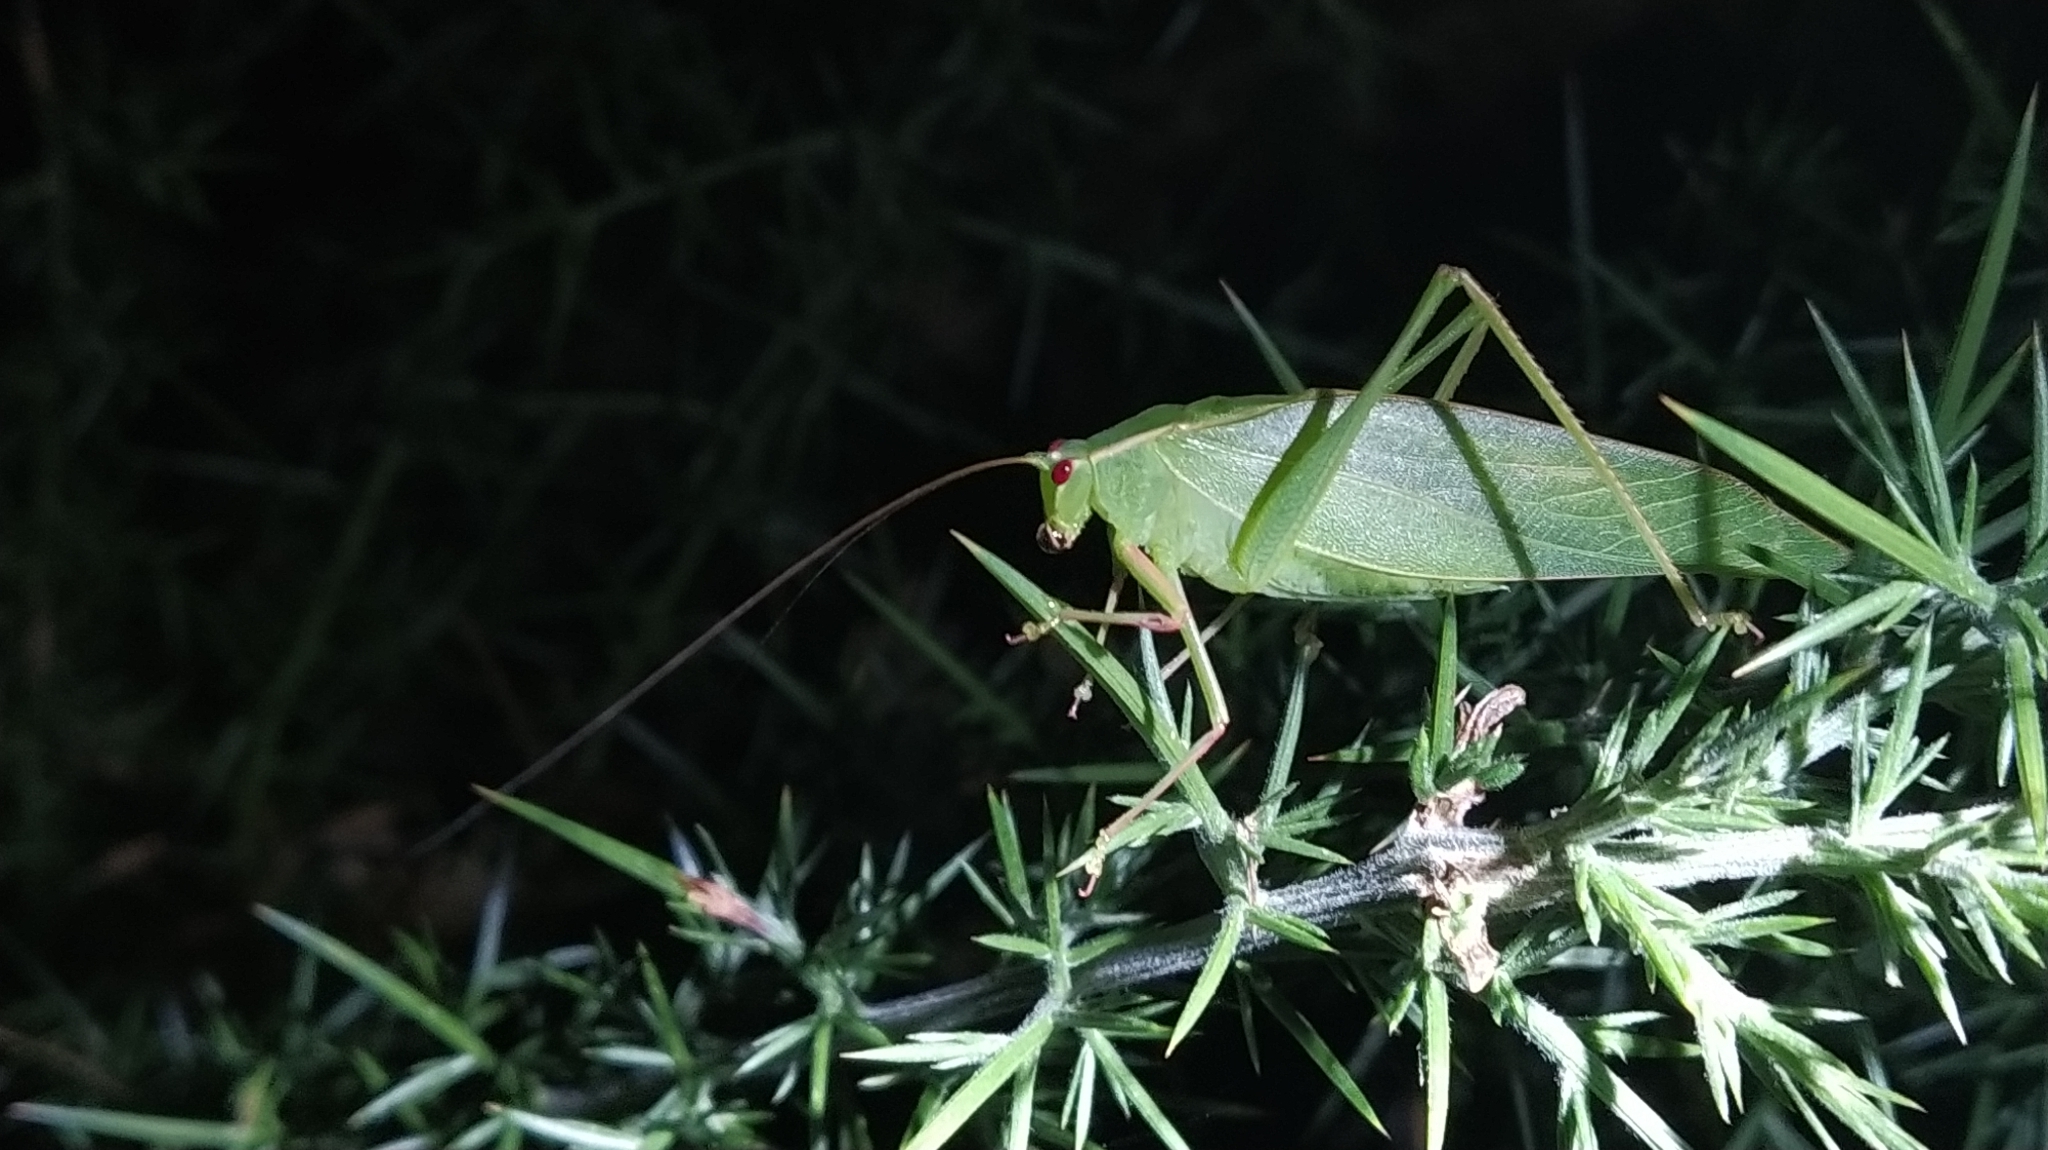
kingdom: Animalia
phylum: Arthropoda
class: Insecta
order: Orthoptera
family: Tettigoniidae
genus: Caedicia
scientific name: Caedicia simplex
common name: Common garden katydid
